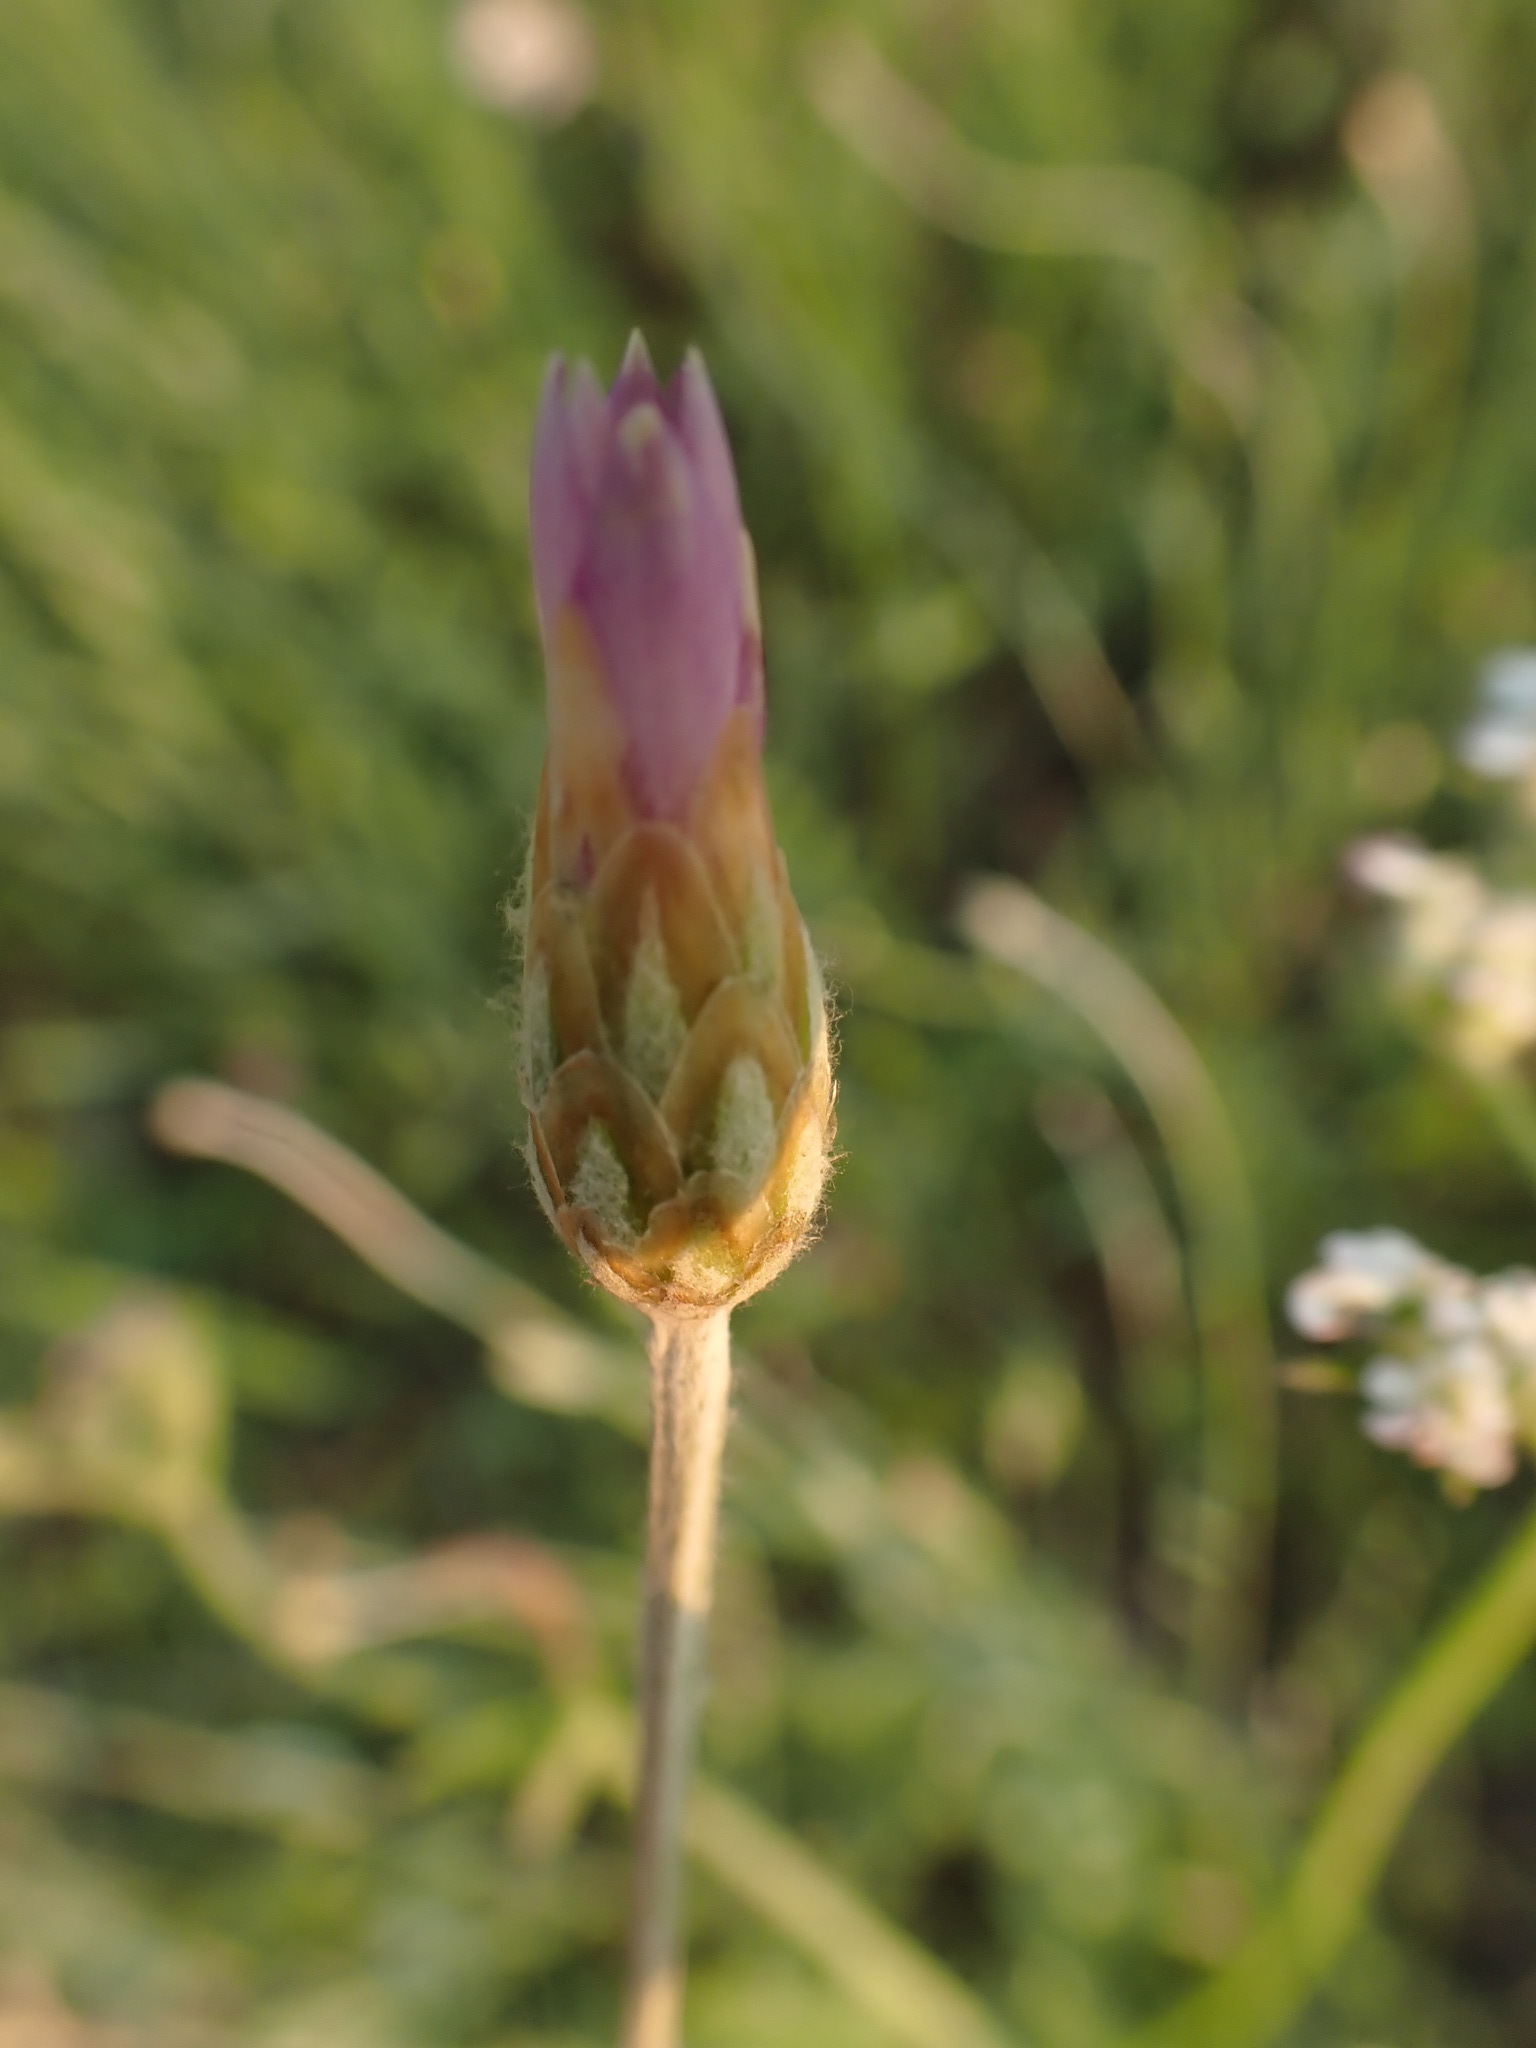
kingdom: Plantae
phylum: Tracheophyta
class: Magnoliopsida
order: Asterales
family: Asteraceae
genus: Xeranthemum
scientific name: Xeranthemum cylindraceum
